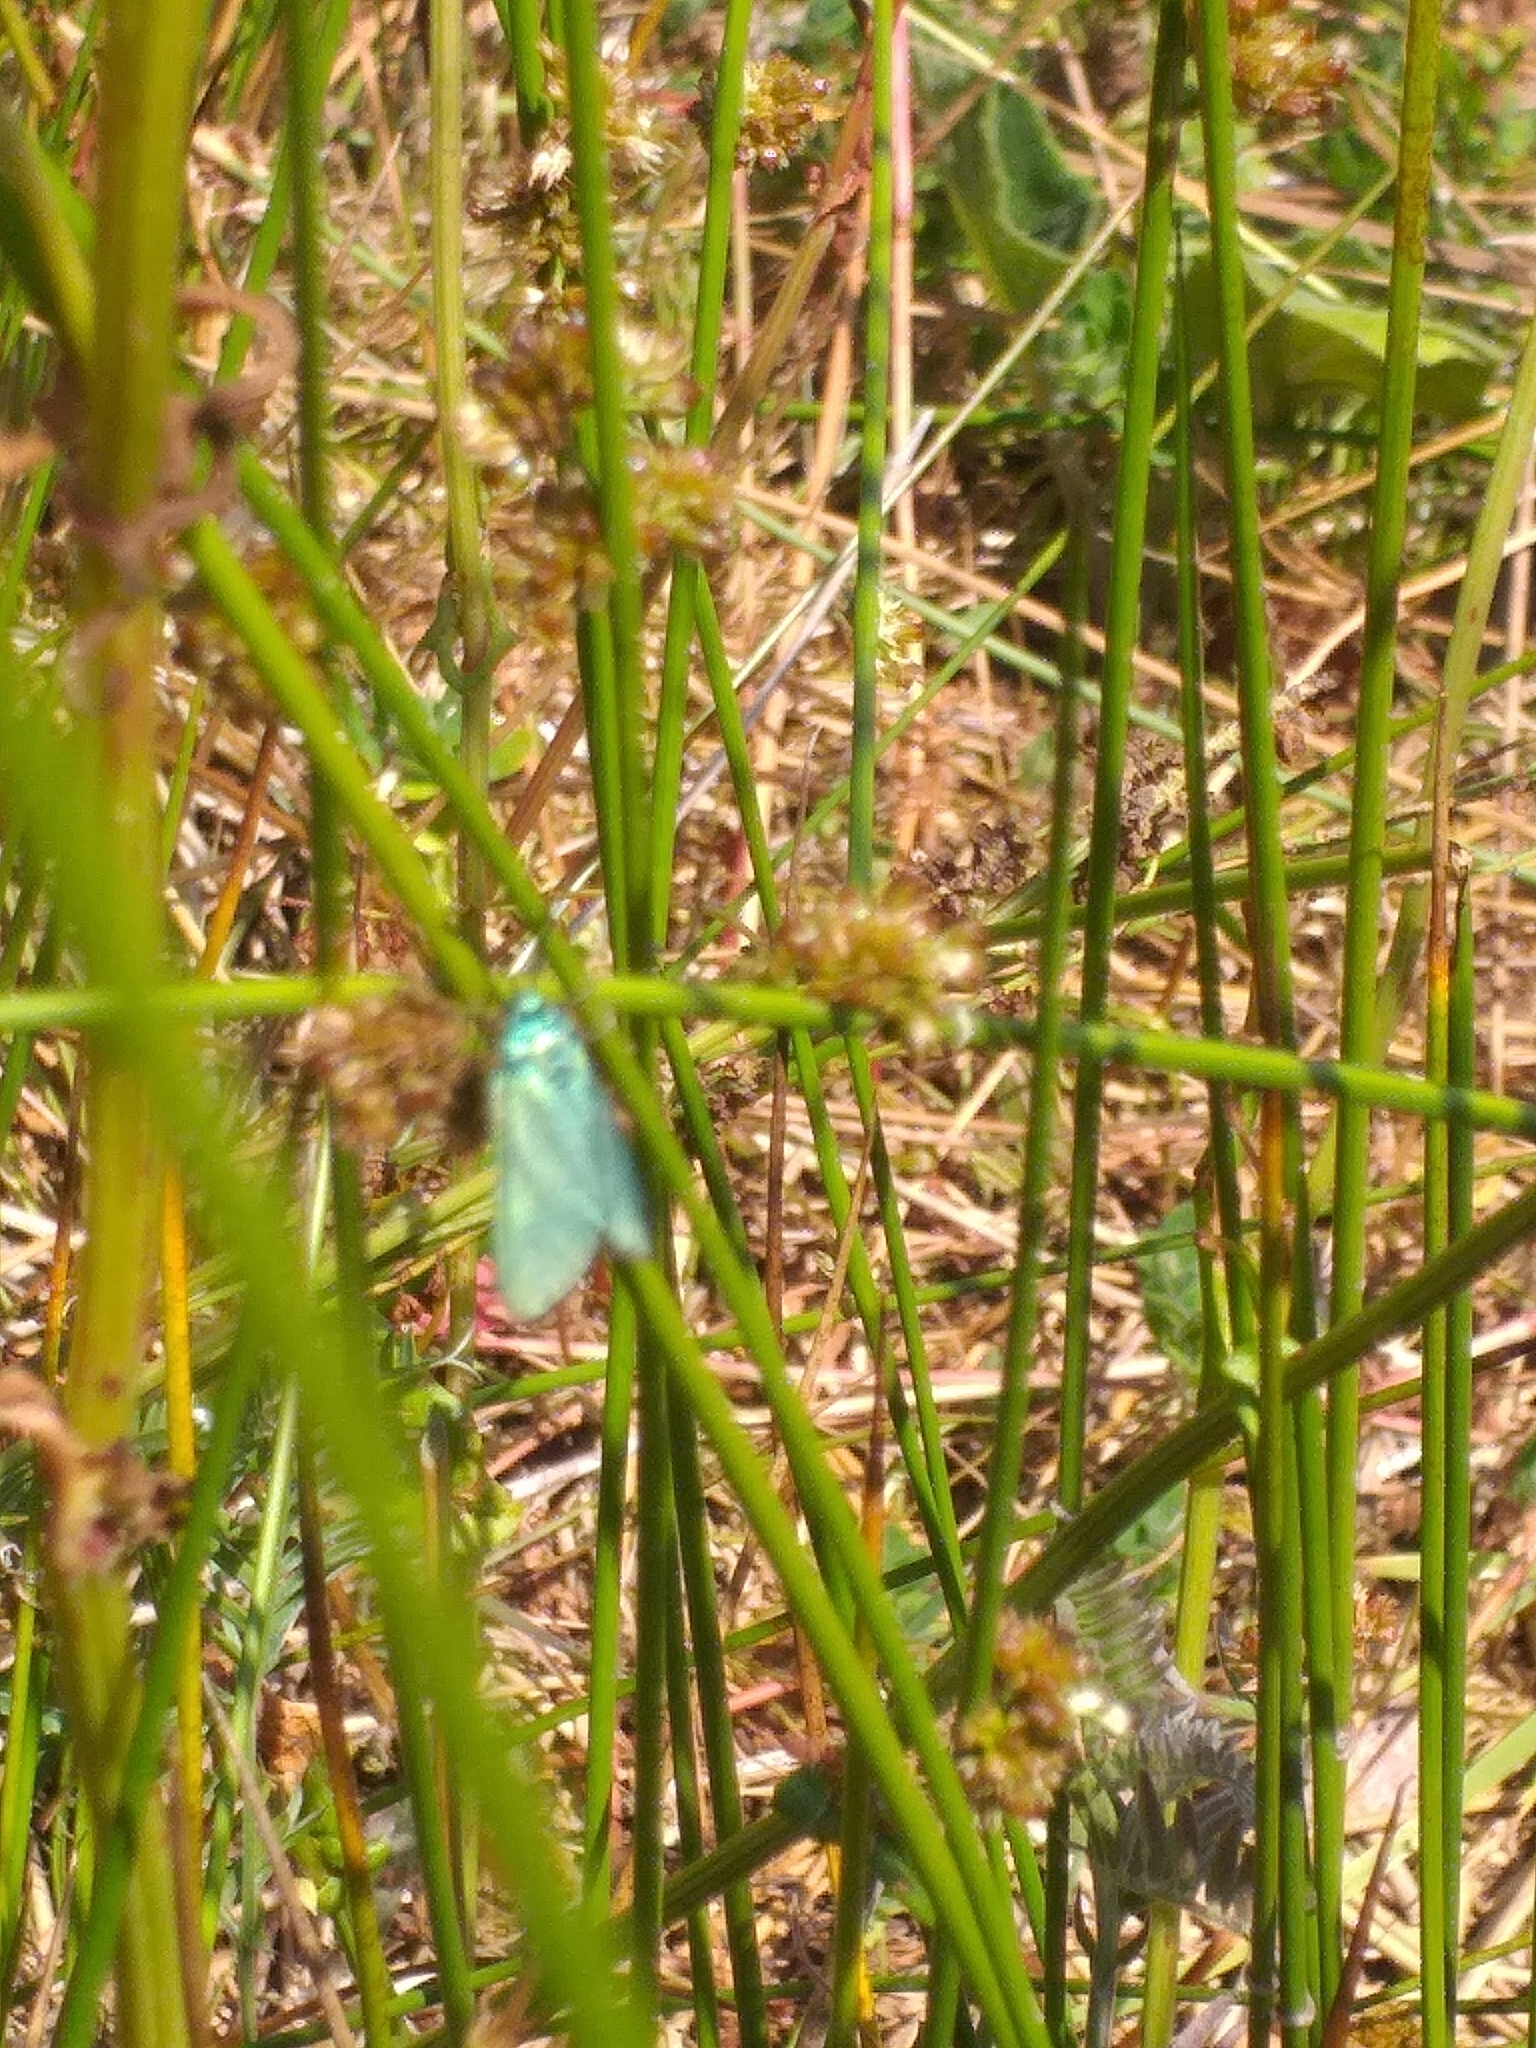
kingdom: Animalia
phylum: Arthropoda
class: Insecta
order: Lepidoptera
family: Zygaenidae
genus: Adscita
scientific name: Adscita statices
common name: Forester
